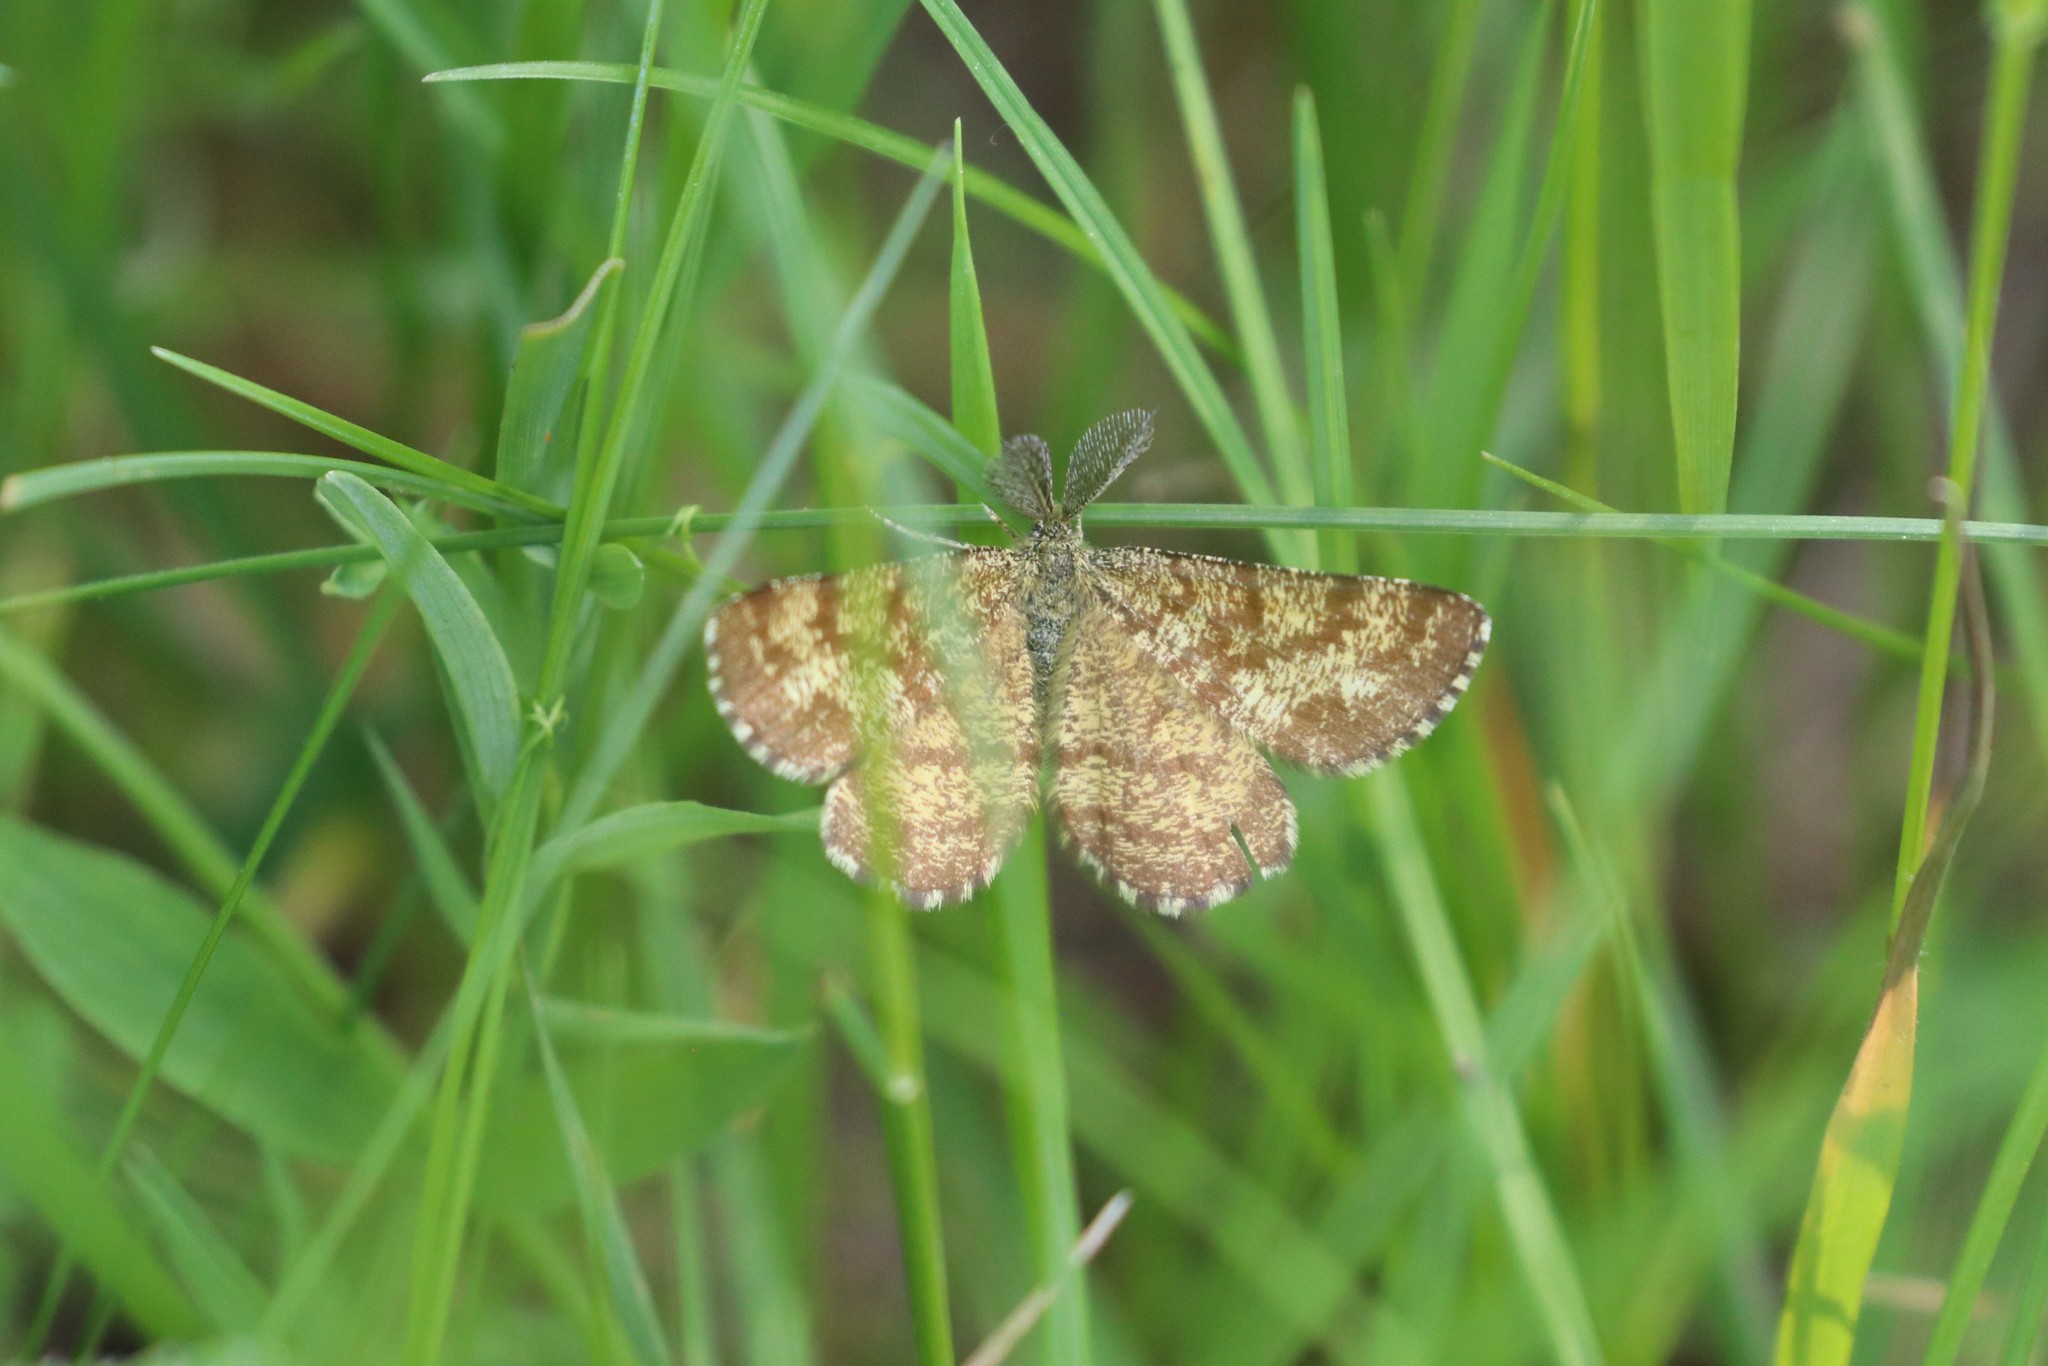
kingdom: Animalia
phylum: Arthropoda
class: Insecta
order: Lepidoptera
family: Geometridae
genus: Ematurga
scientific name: Ematurga atomaria
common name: Common heath
